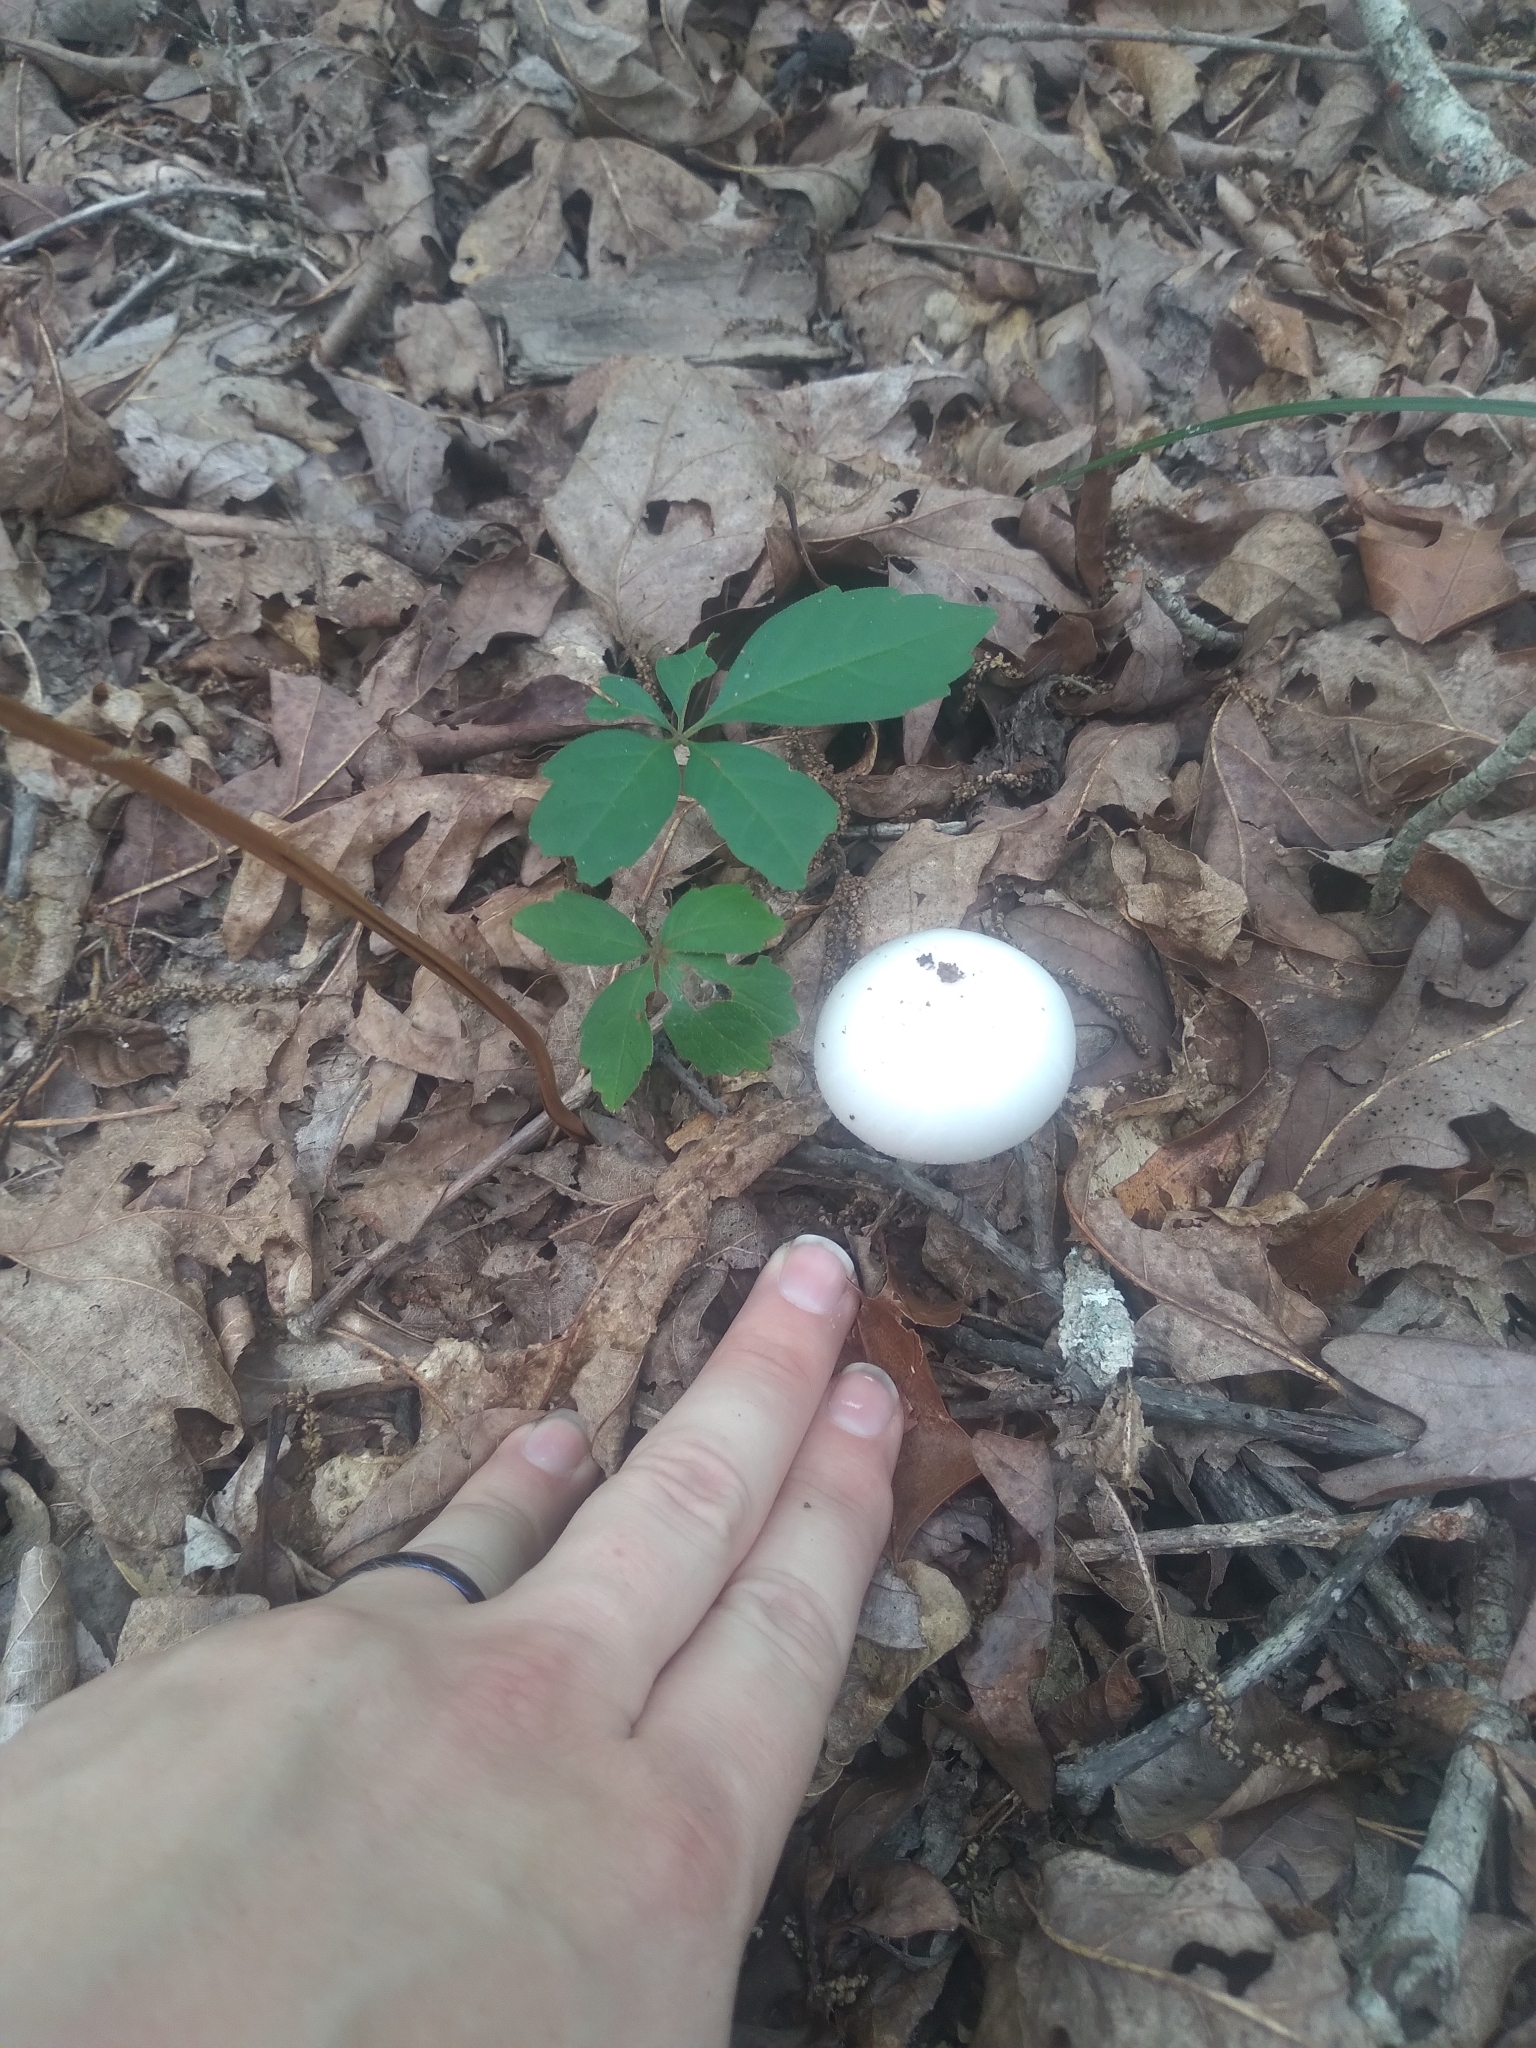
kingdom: Fungi
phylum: Basidiomycota
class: Agaricomycetes
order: Agaricales
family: Amanitaceae
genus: Amanita
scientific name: Amanita bisporigera
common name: Eastern north american destroying angel
